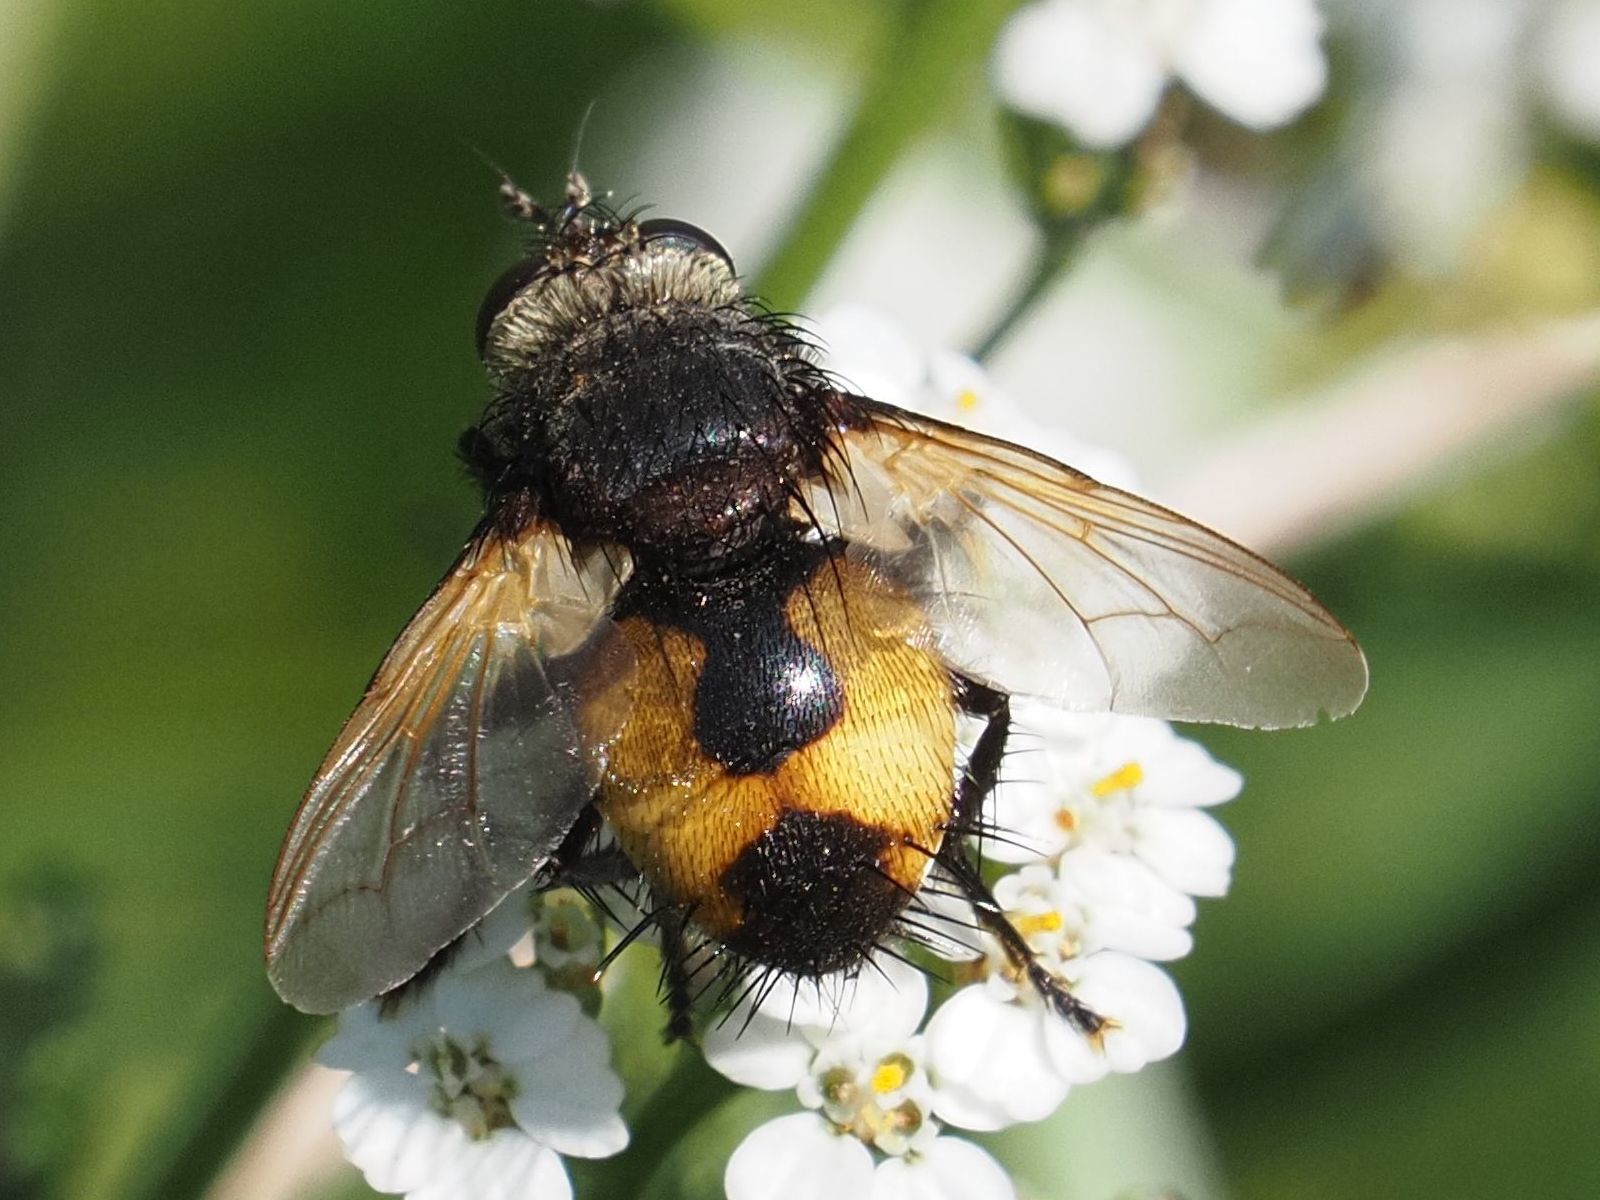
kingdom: Animalia
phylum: Arthropoda
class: Insecta
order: Diptera
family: Tachinidae
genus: Nowickia
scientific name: Nowickia ferox
